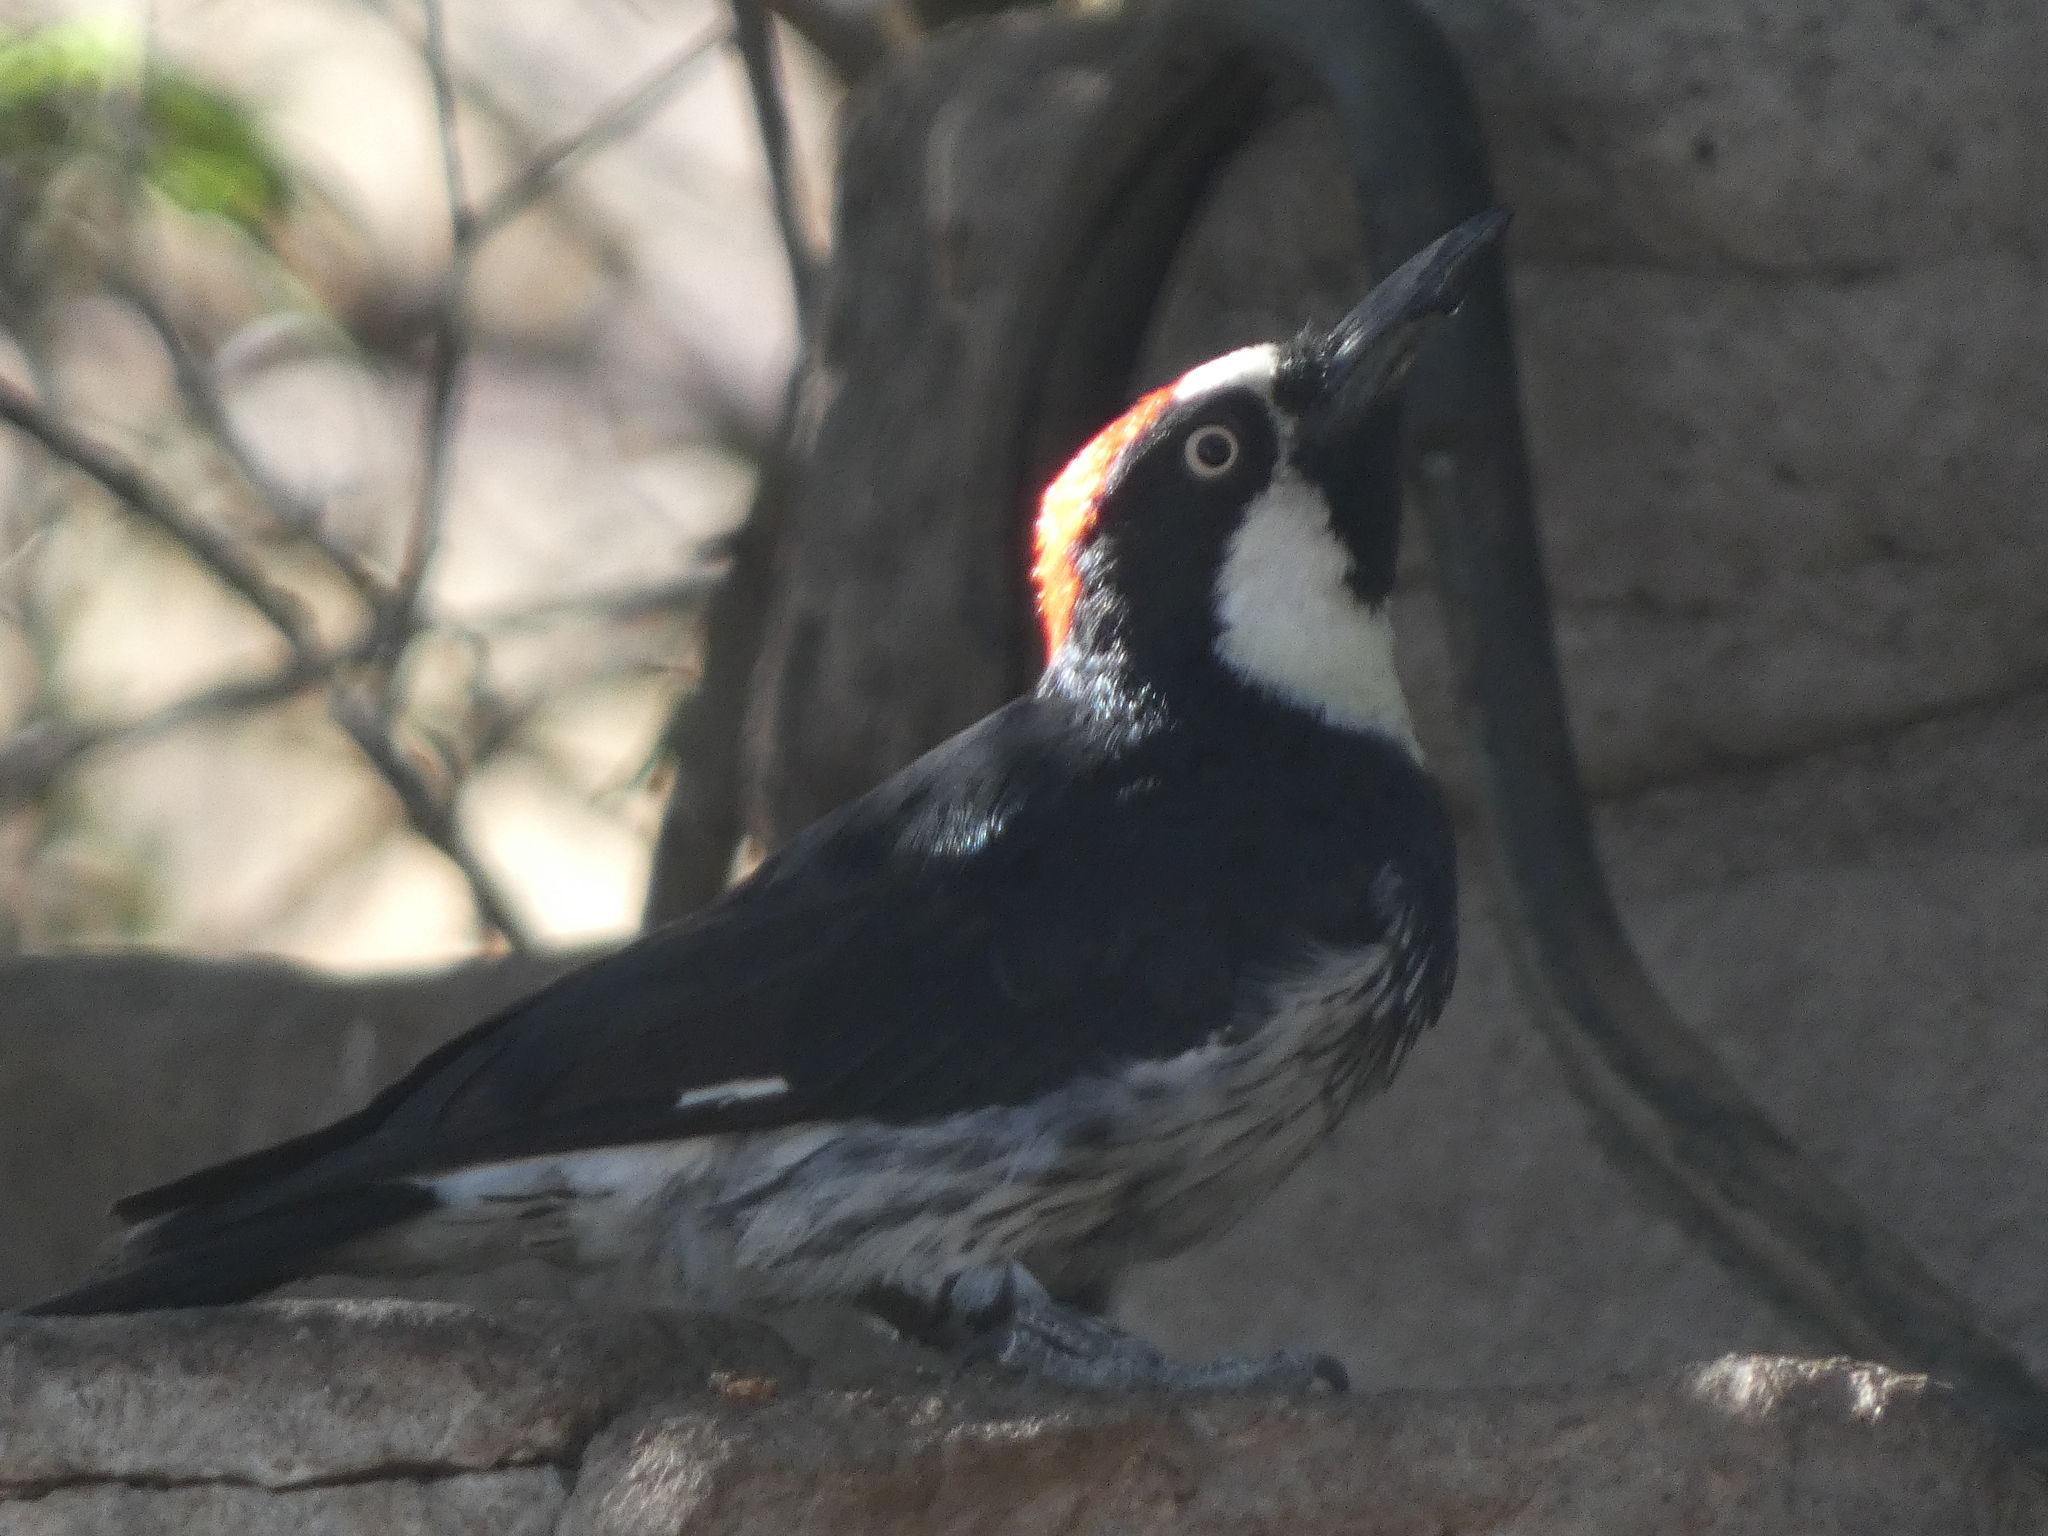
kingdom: Animalia
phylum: Chordata
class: Aves
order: Piciformes
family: Picidae
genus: Melanerpes
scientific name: Melanerpes formicivorus
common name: Acorn woodpecker
